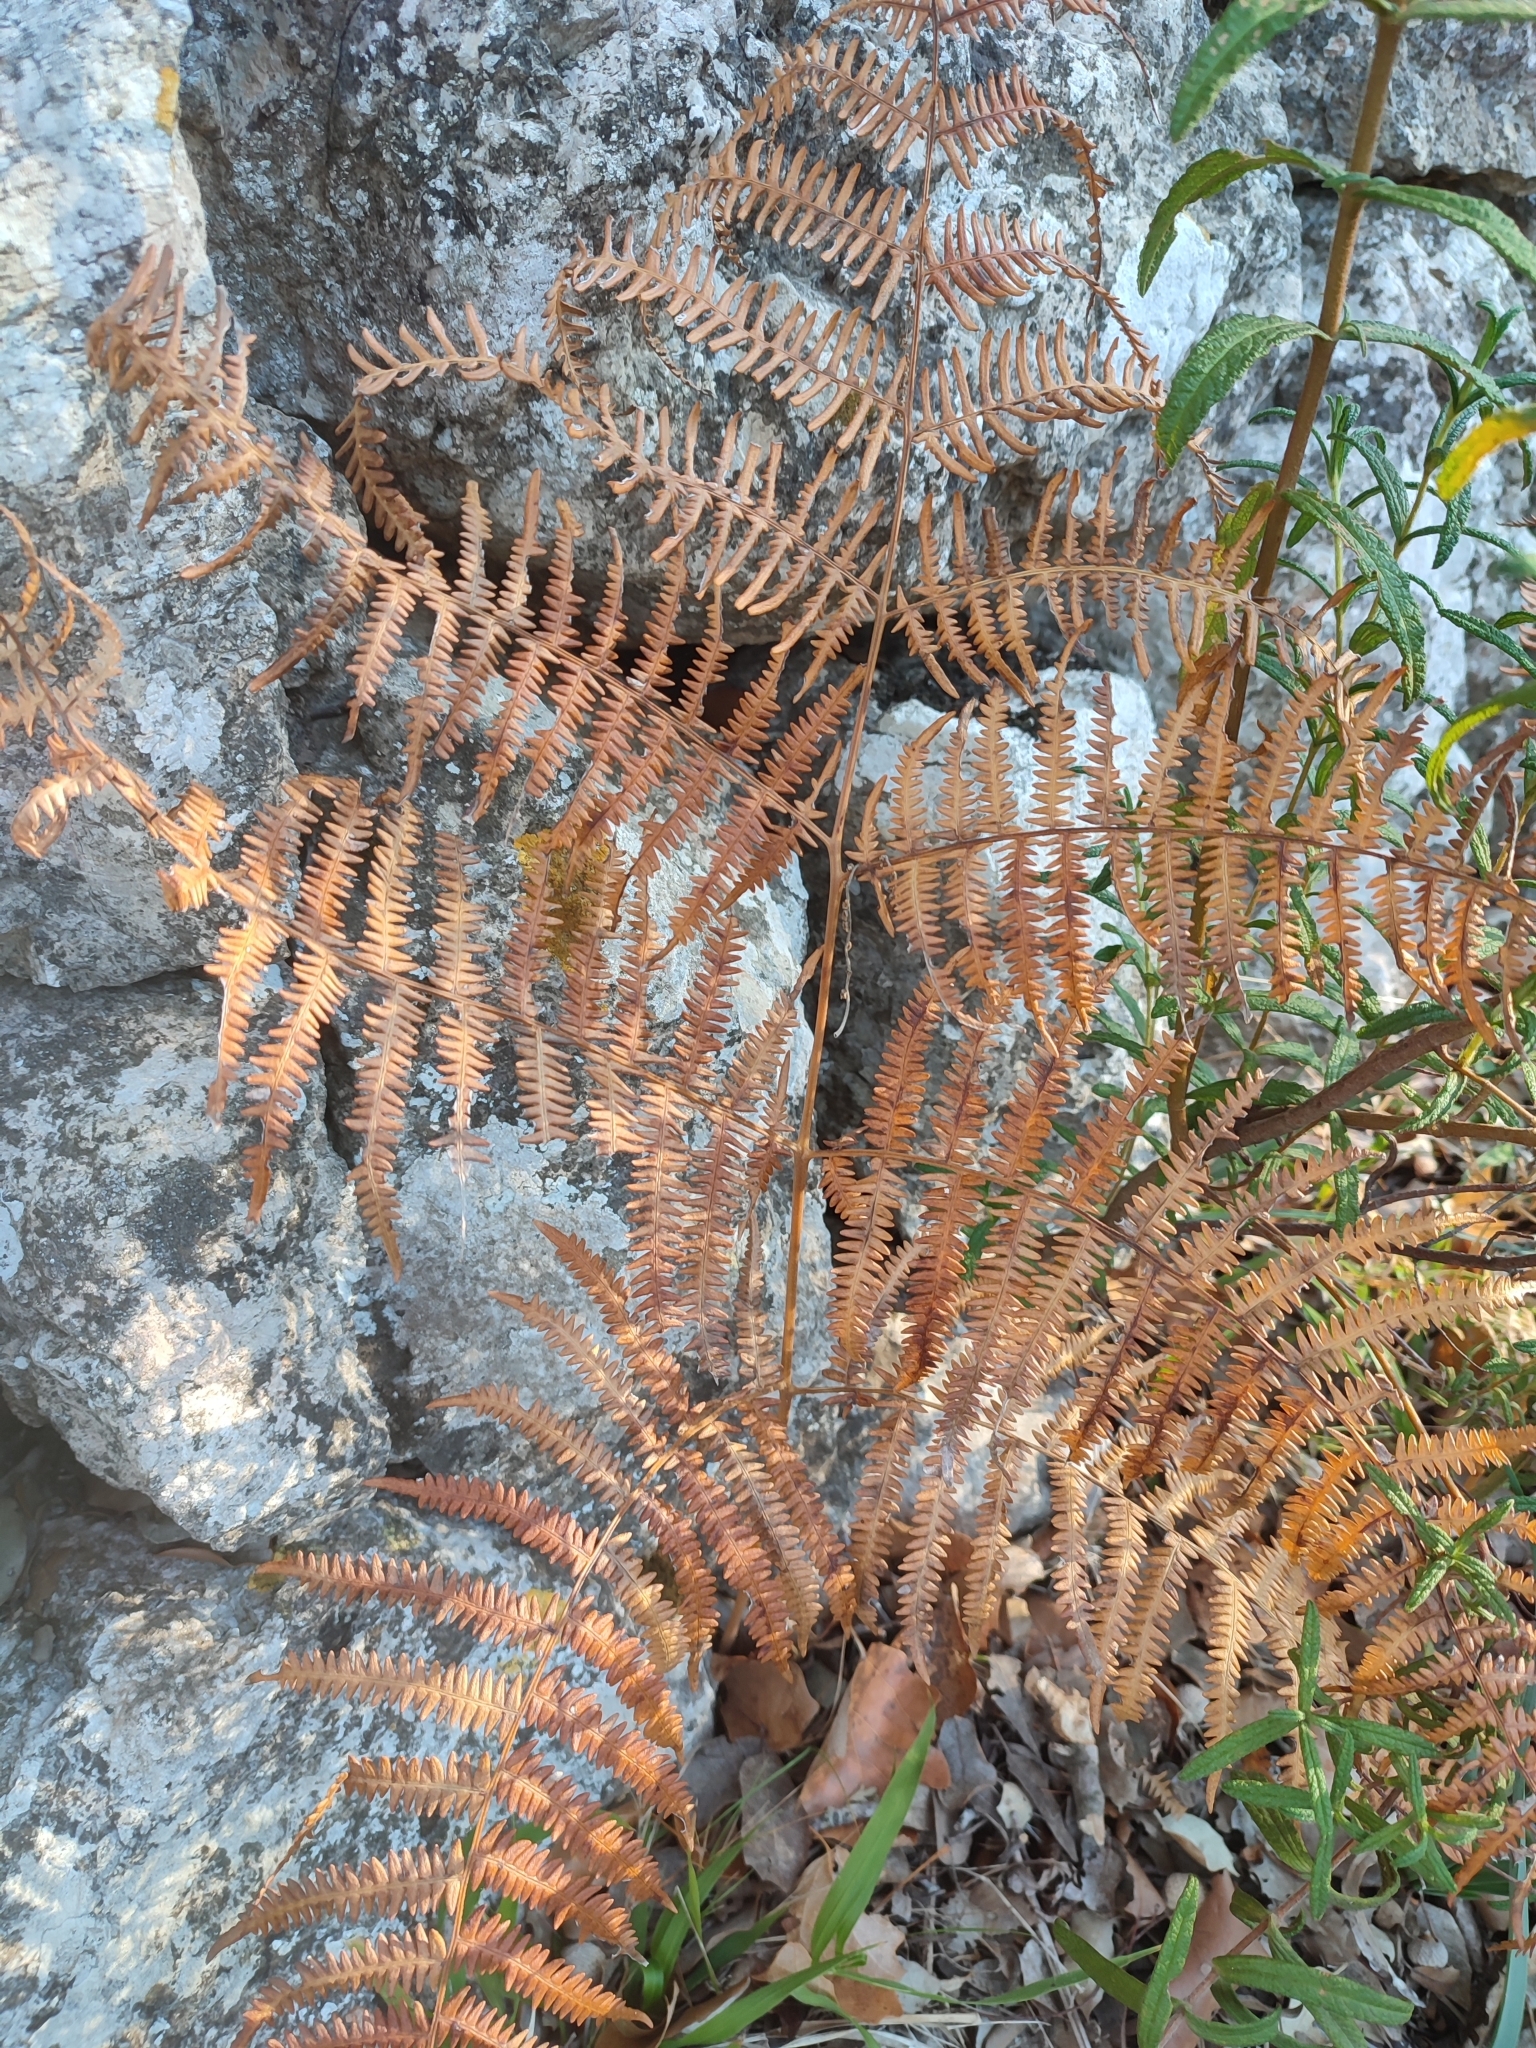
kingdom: Plantae
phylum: Tracheophyta
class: Polypodiopsida
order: Polypodiales
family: Dennstaedtiaceae
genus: Pteridium
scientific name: Pteridium aquilinum
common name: Bracken
